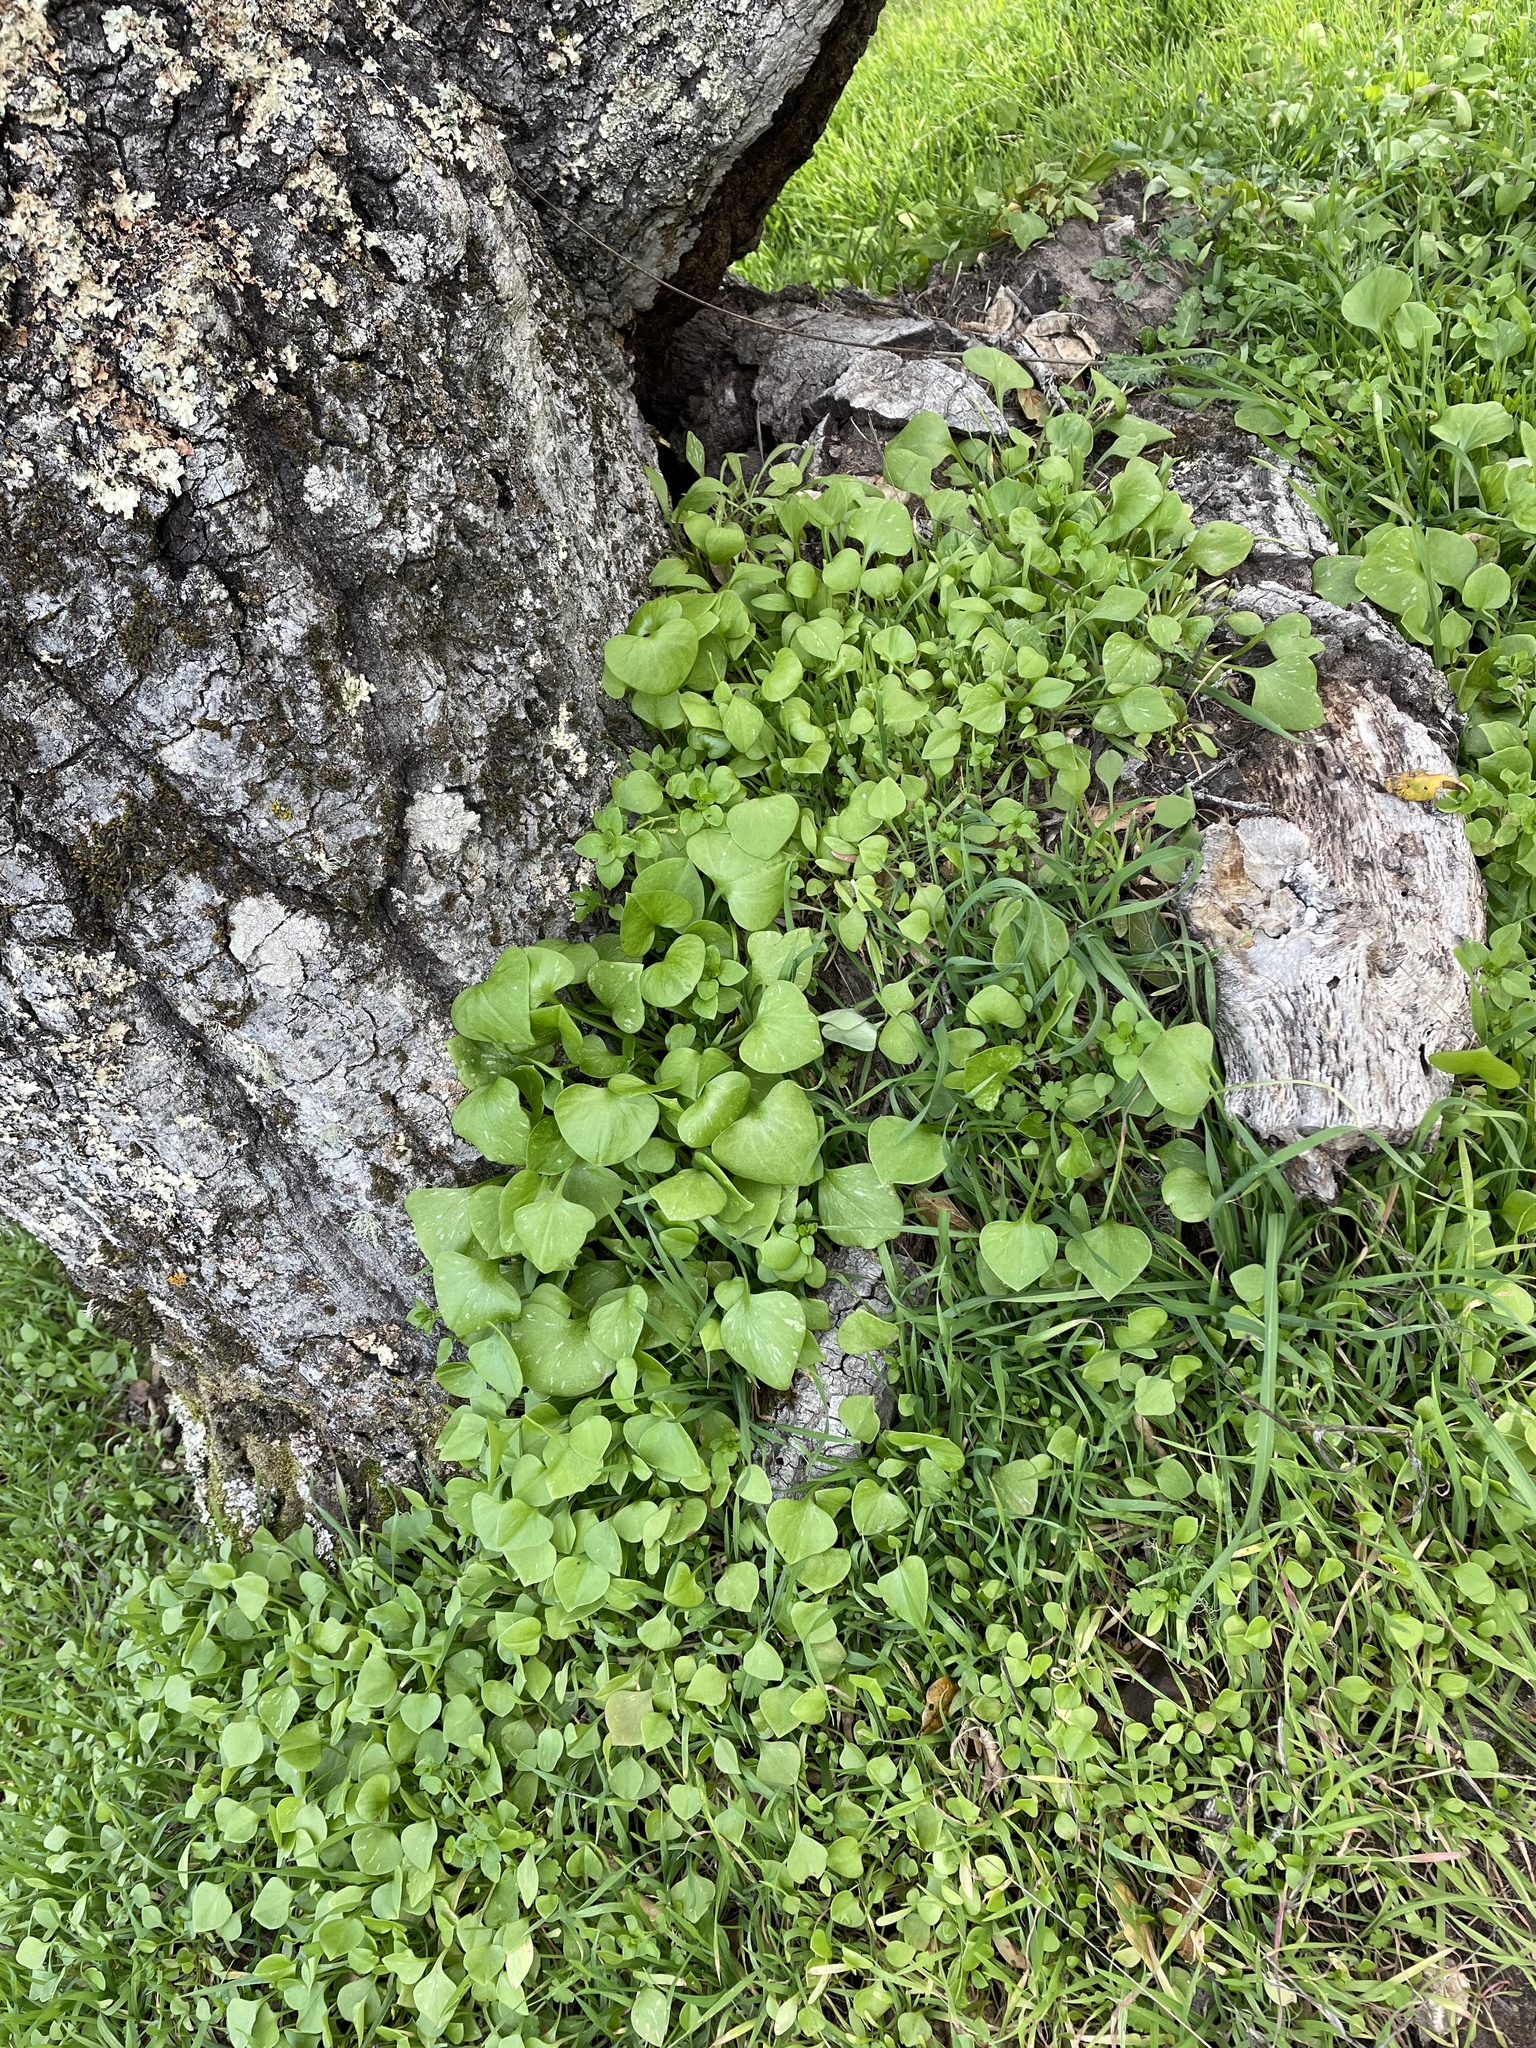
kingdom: Plantae
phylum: Tracheophyta
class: Magnoliopsida
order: Caryophyllales
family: Montiaceae
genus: Claytonia
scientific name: Claytonia perfoliata
